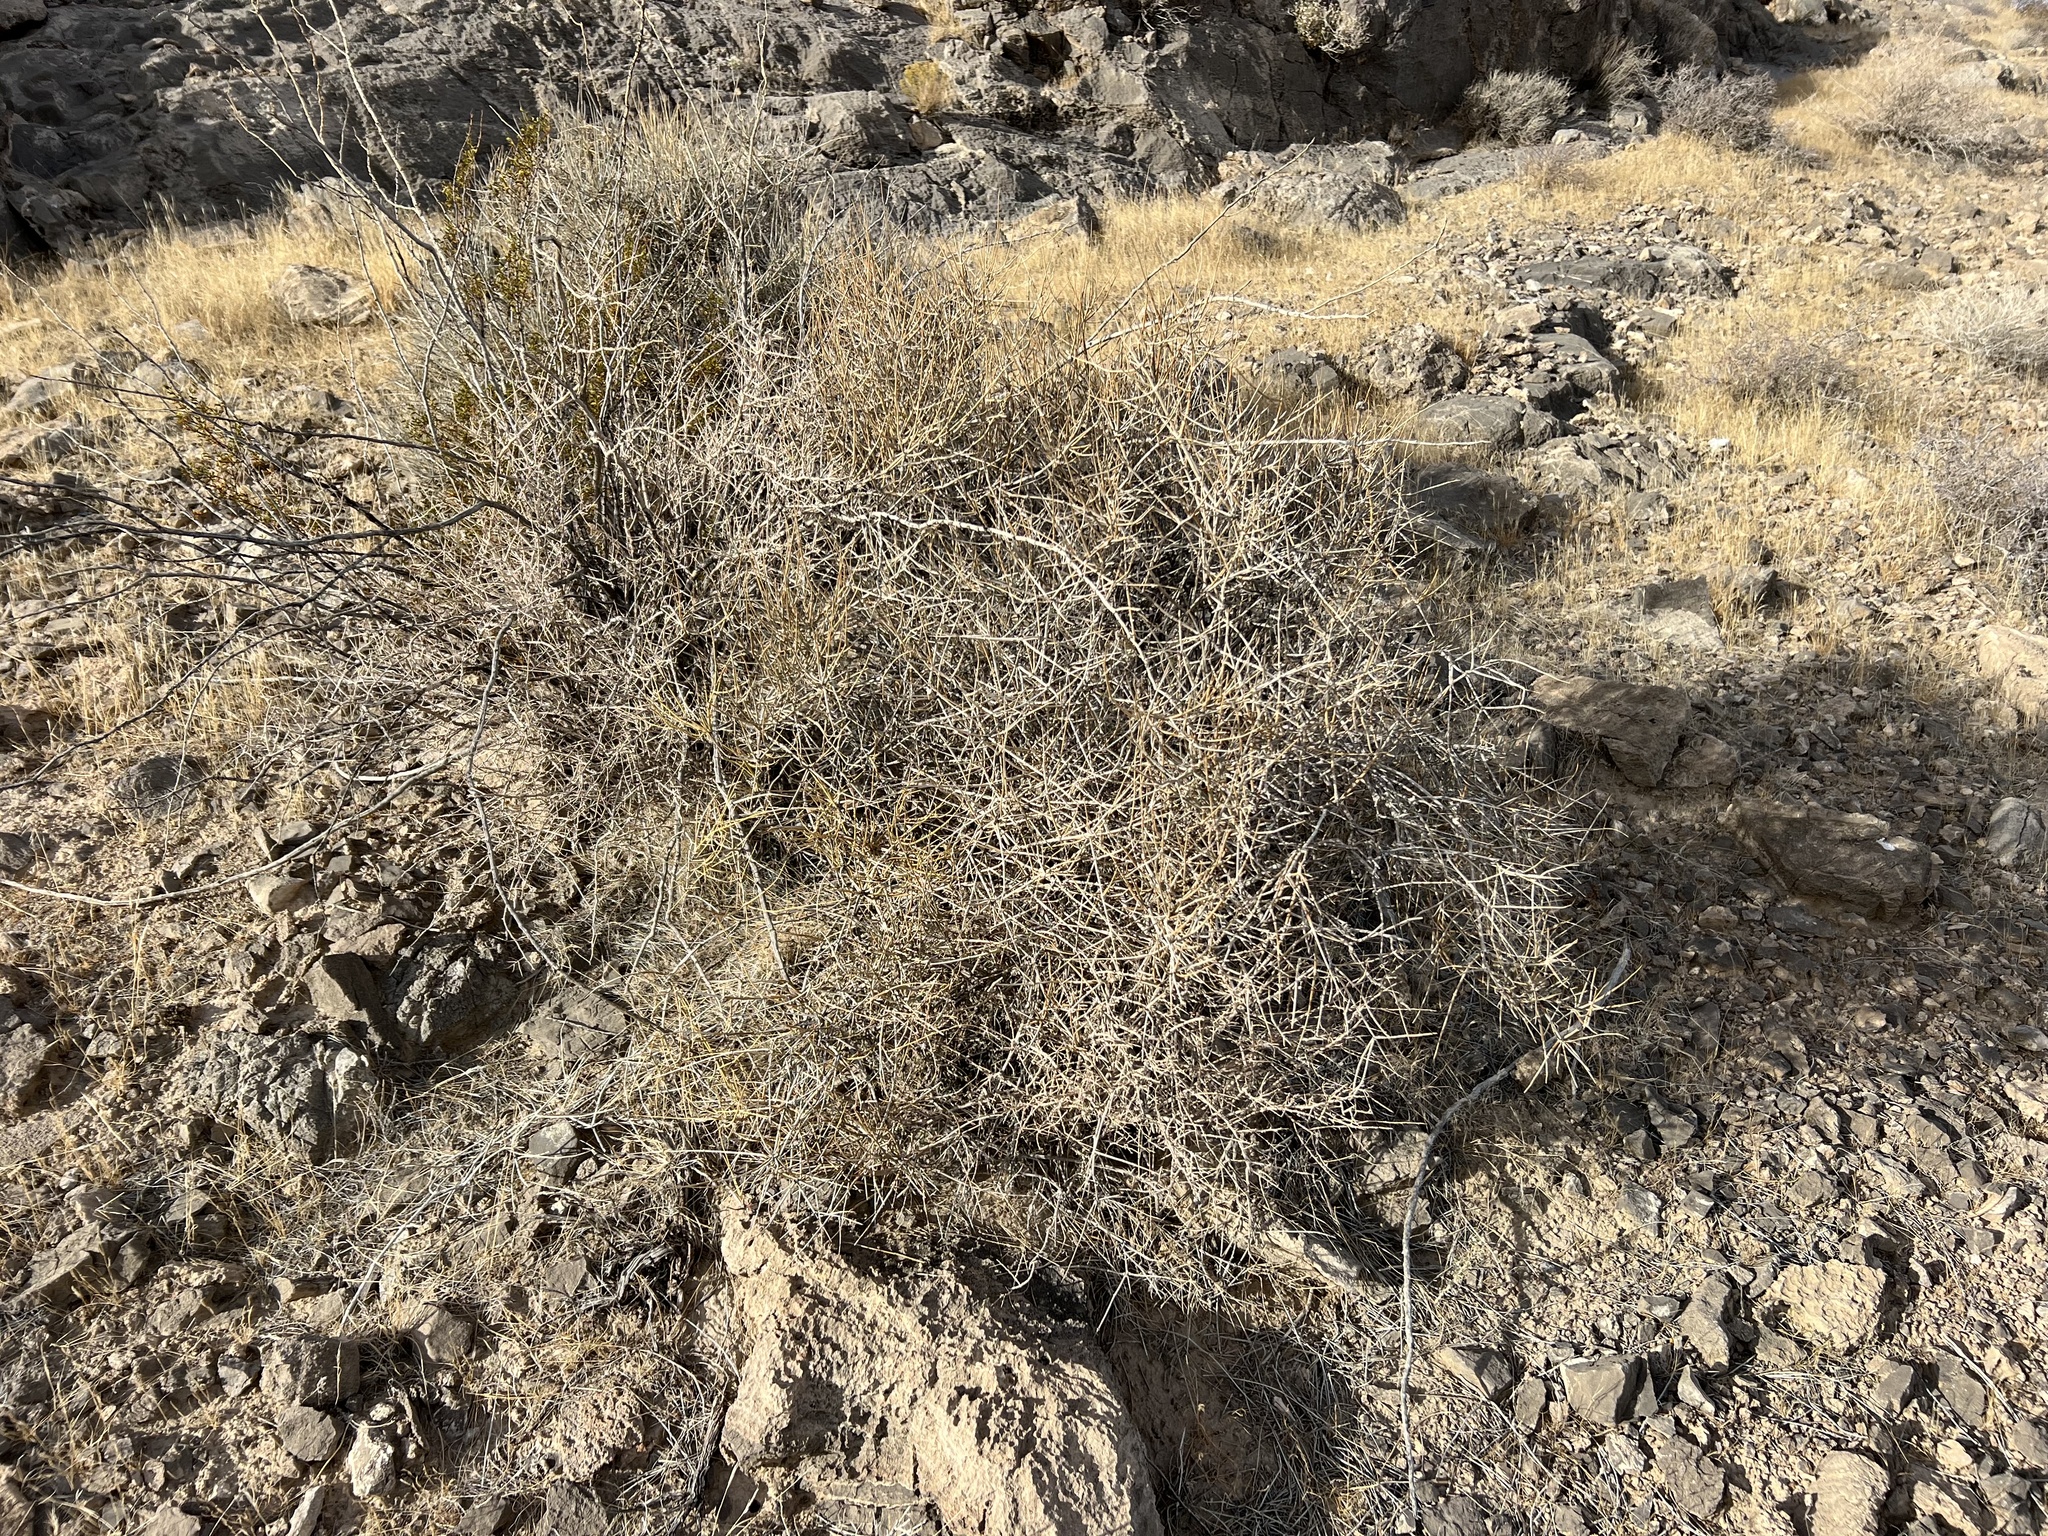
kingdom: Plantae
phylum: Tracheophyta
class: Gnetopsida
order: Ephedrales
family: Ephedraceae
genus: Ephedra
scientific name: Ephedra nevadensis
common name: Gray ephedra
